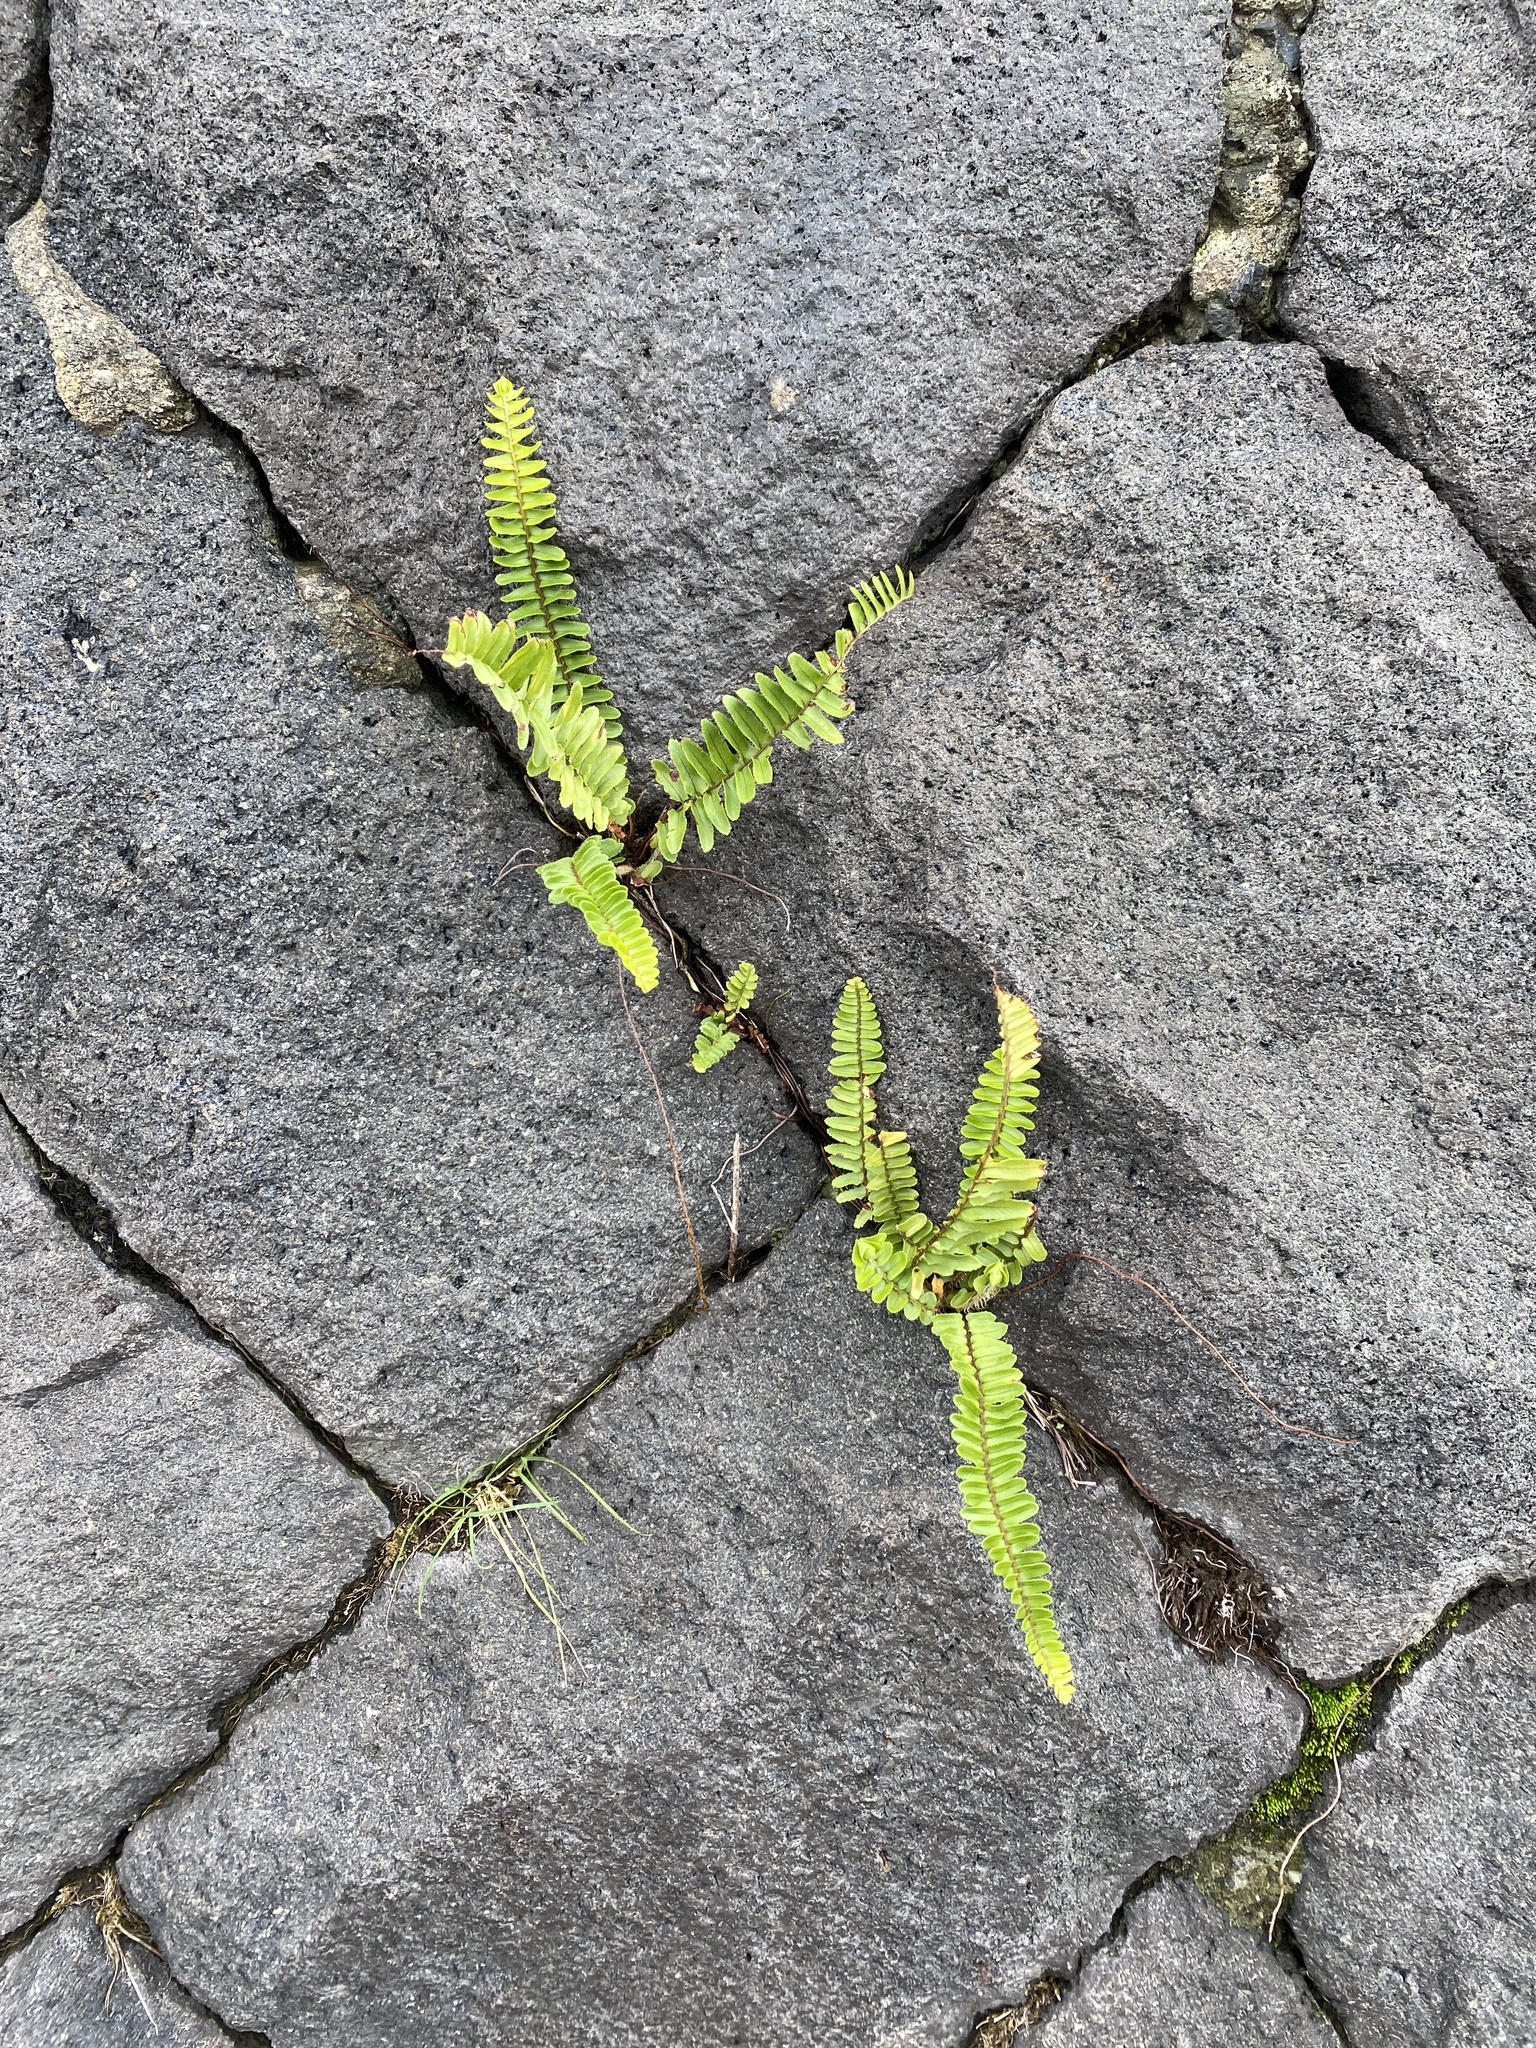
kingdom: Plantae
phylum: Tracheophyta
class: Polypodiopsida
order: Polypodiales
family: Nephrolepidaceae
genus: Nephrolepis
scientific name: Nephrolepis cordifolia
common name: Narrow swordfern
